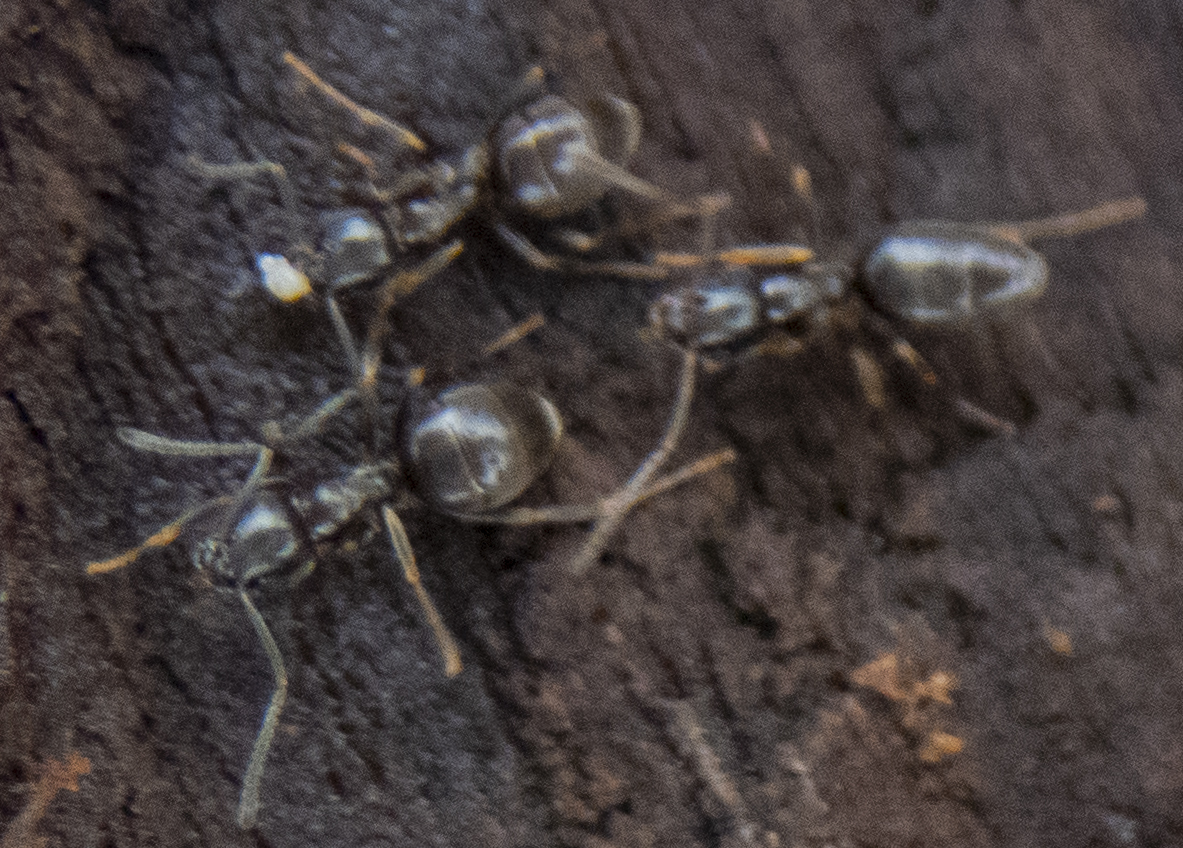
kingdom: Animalia
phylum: Arthropoda
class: Insecta
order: Hymenoptera
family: Formicidae
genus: Tapinoma
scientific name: Tapinoma sessile
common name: Odorous house ant
